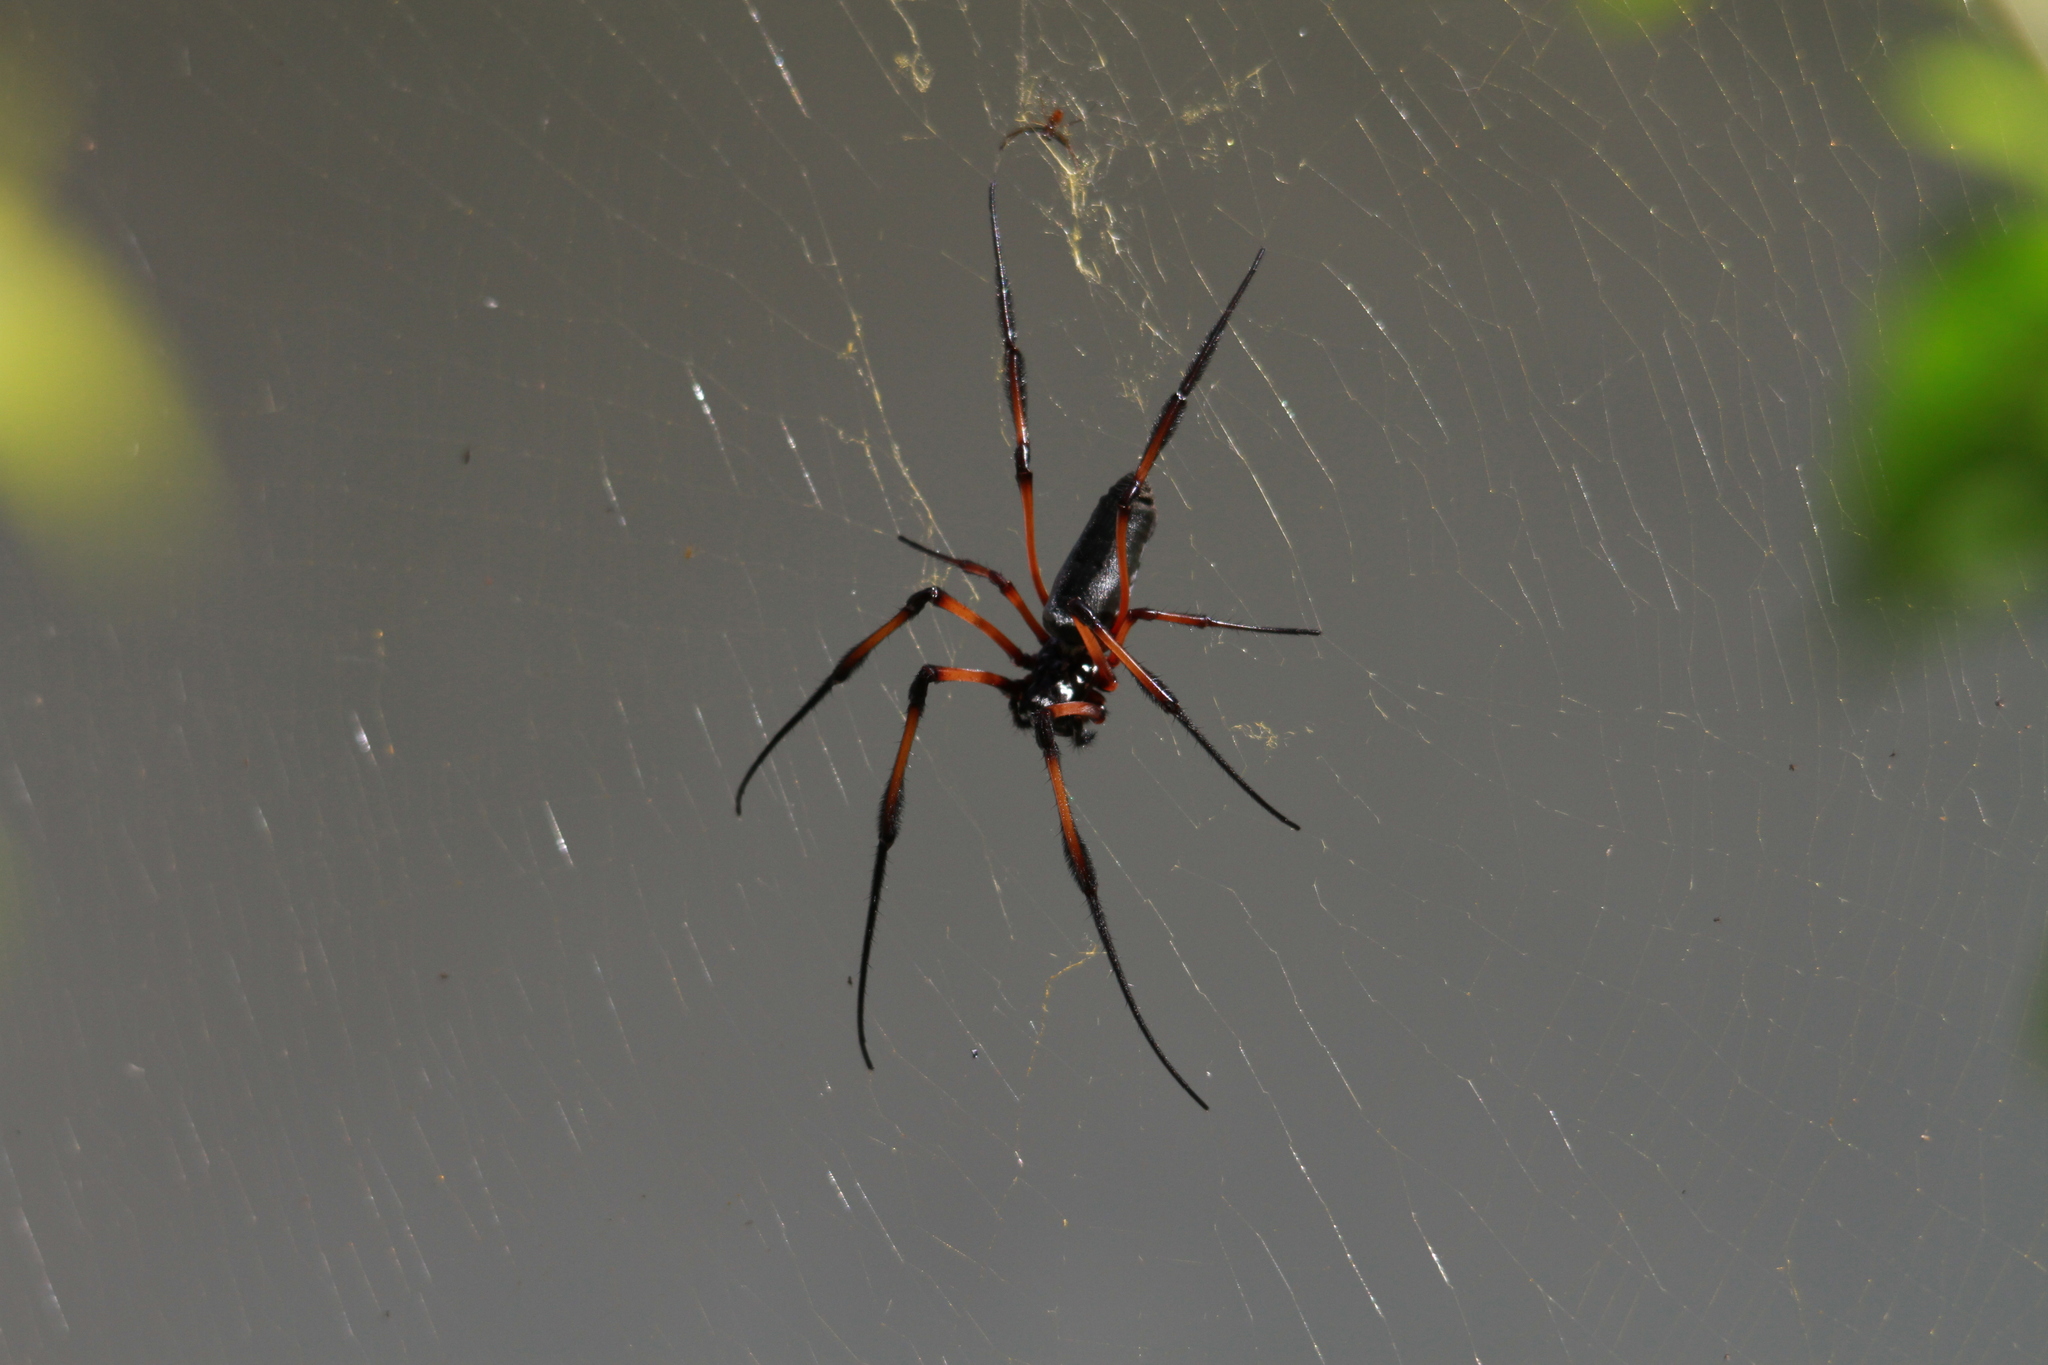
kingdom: Animalia
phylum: Arthropoda
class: Arachnida
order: Araneae
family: Araneidae
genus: Trichonephila
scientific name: Trichonephila inaurata
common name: Red-legged golden orb weaver
